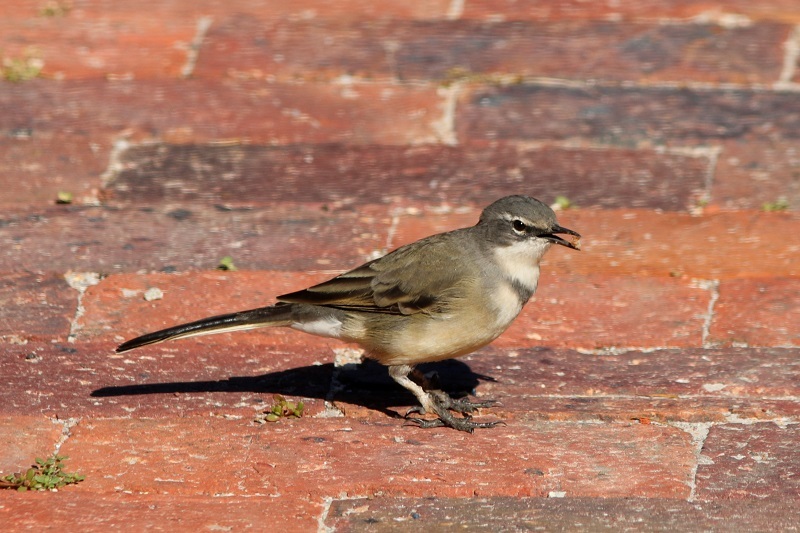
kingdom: Animalia
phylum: Chordata
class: Aves
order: Passeriformes
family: Motacillidae
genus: Motacilla
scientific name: Motacilla capensis
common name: Cape wagtail
